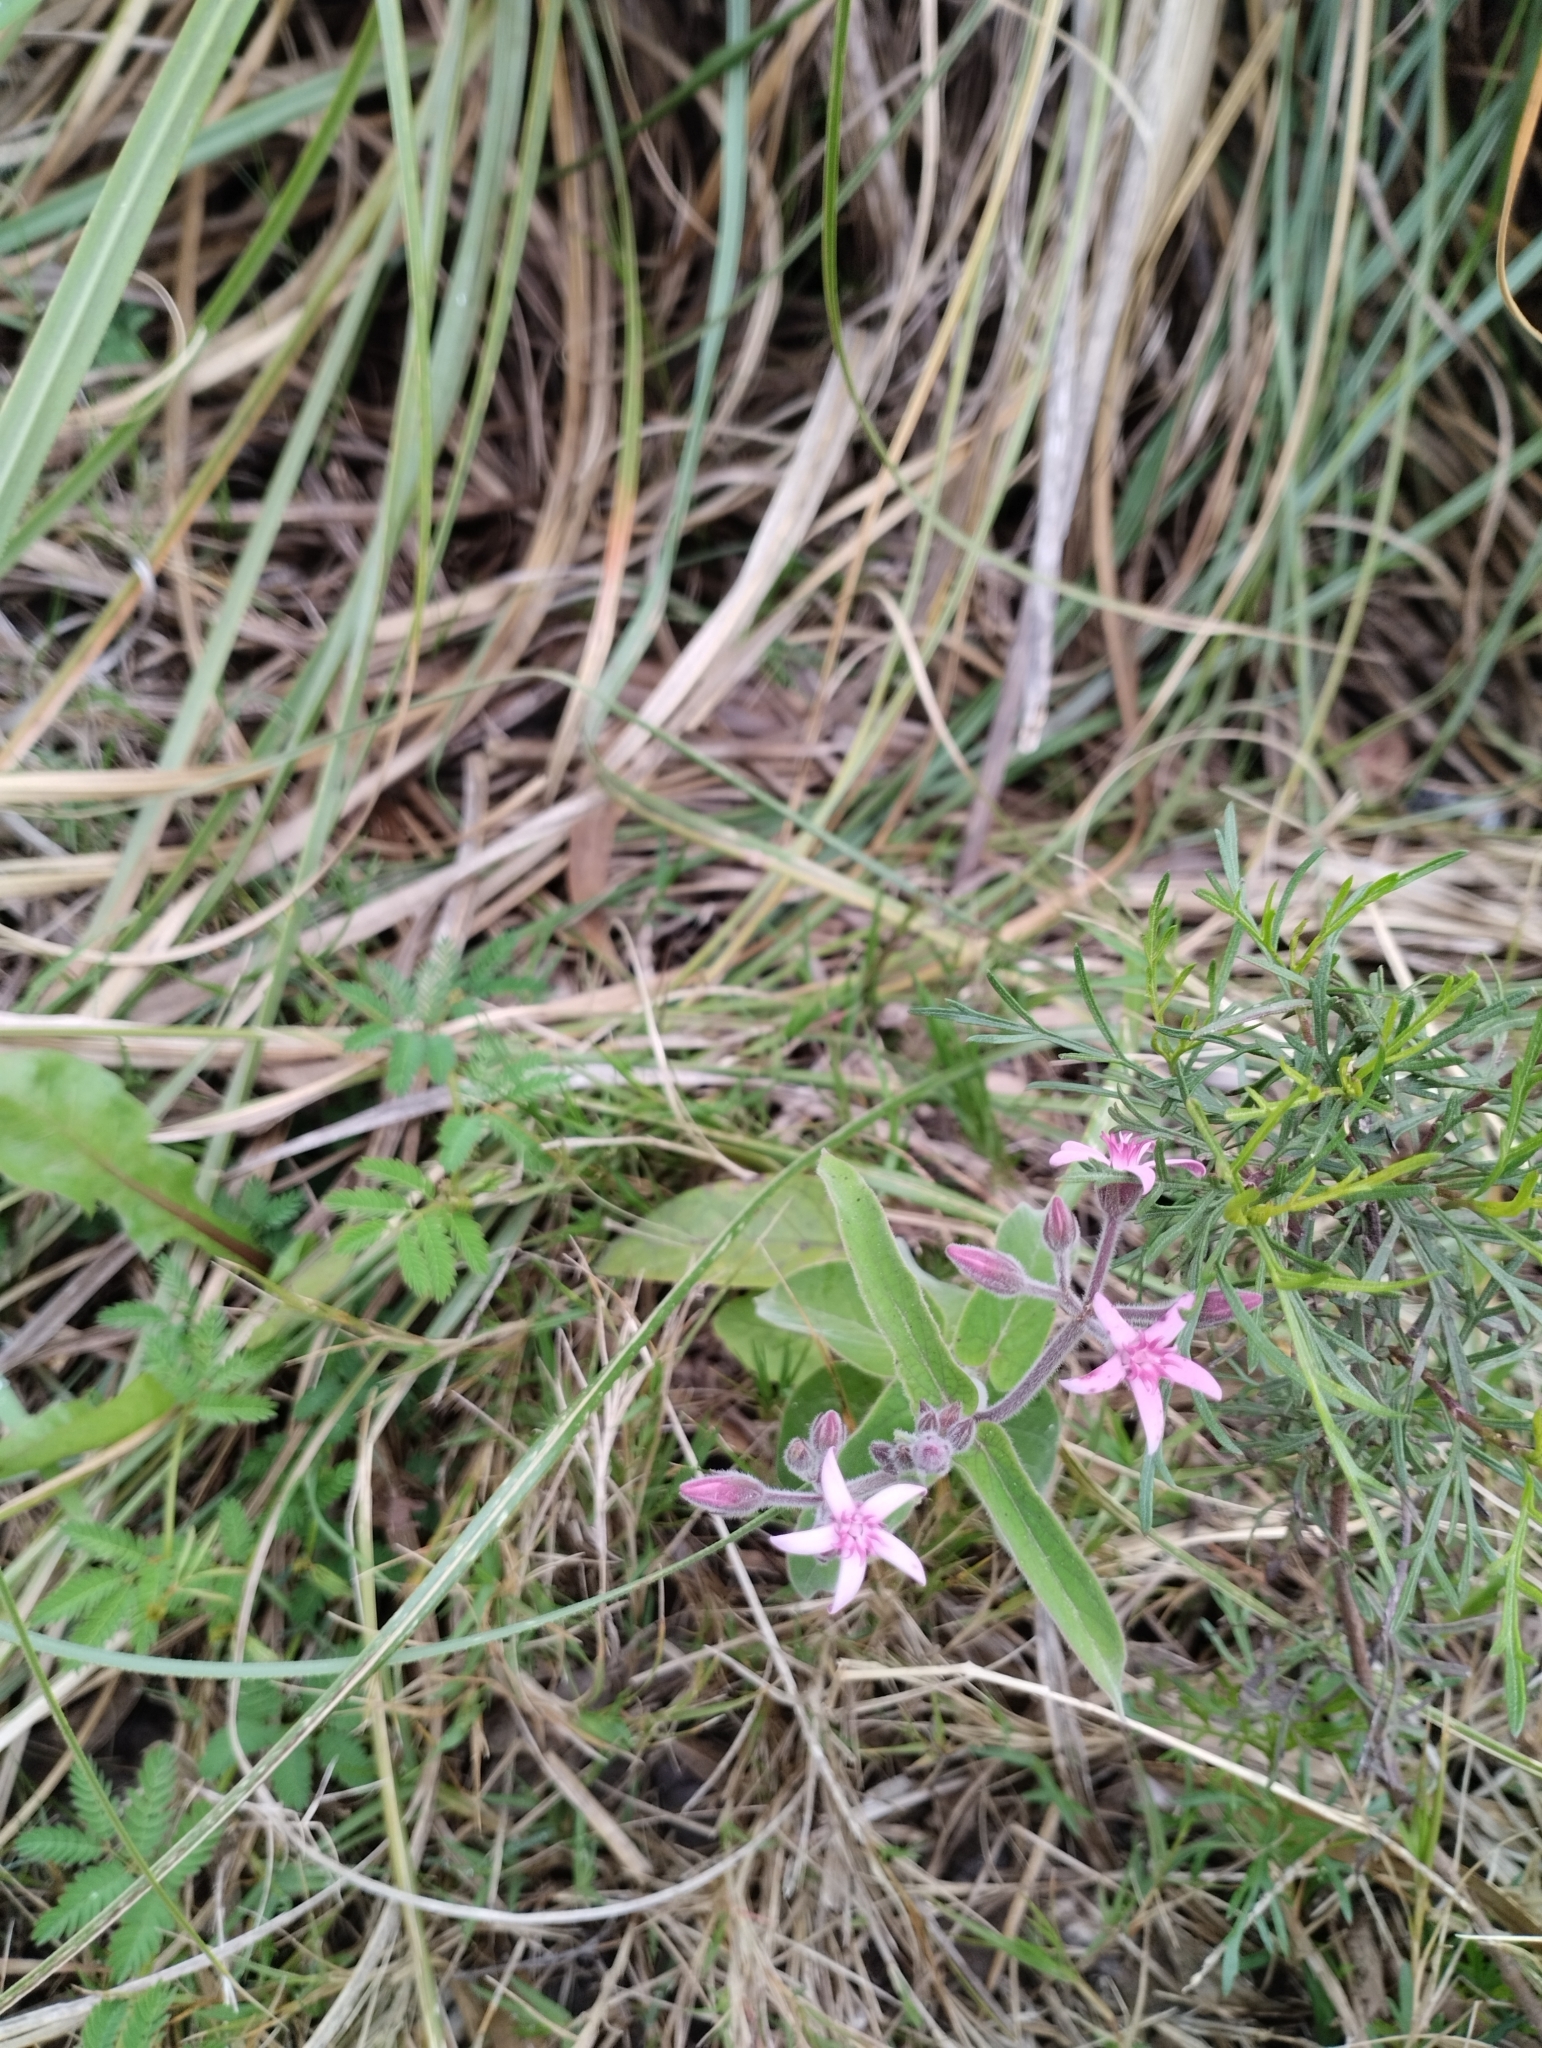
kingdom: Plantae
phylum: Tracheophyta
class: Magnoliopsida
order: Gentianales
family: Apocynaceae
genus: Oxypetalum
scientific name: Oxypetalum solanoides
